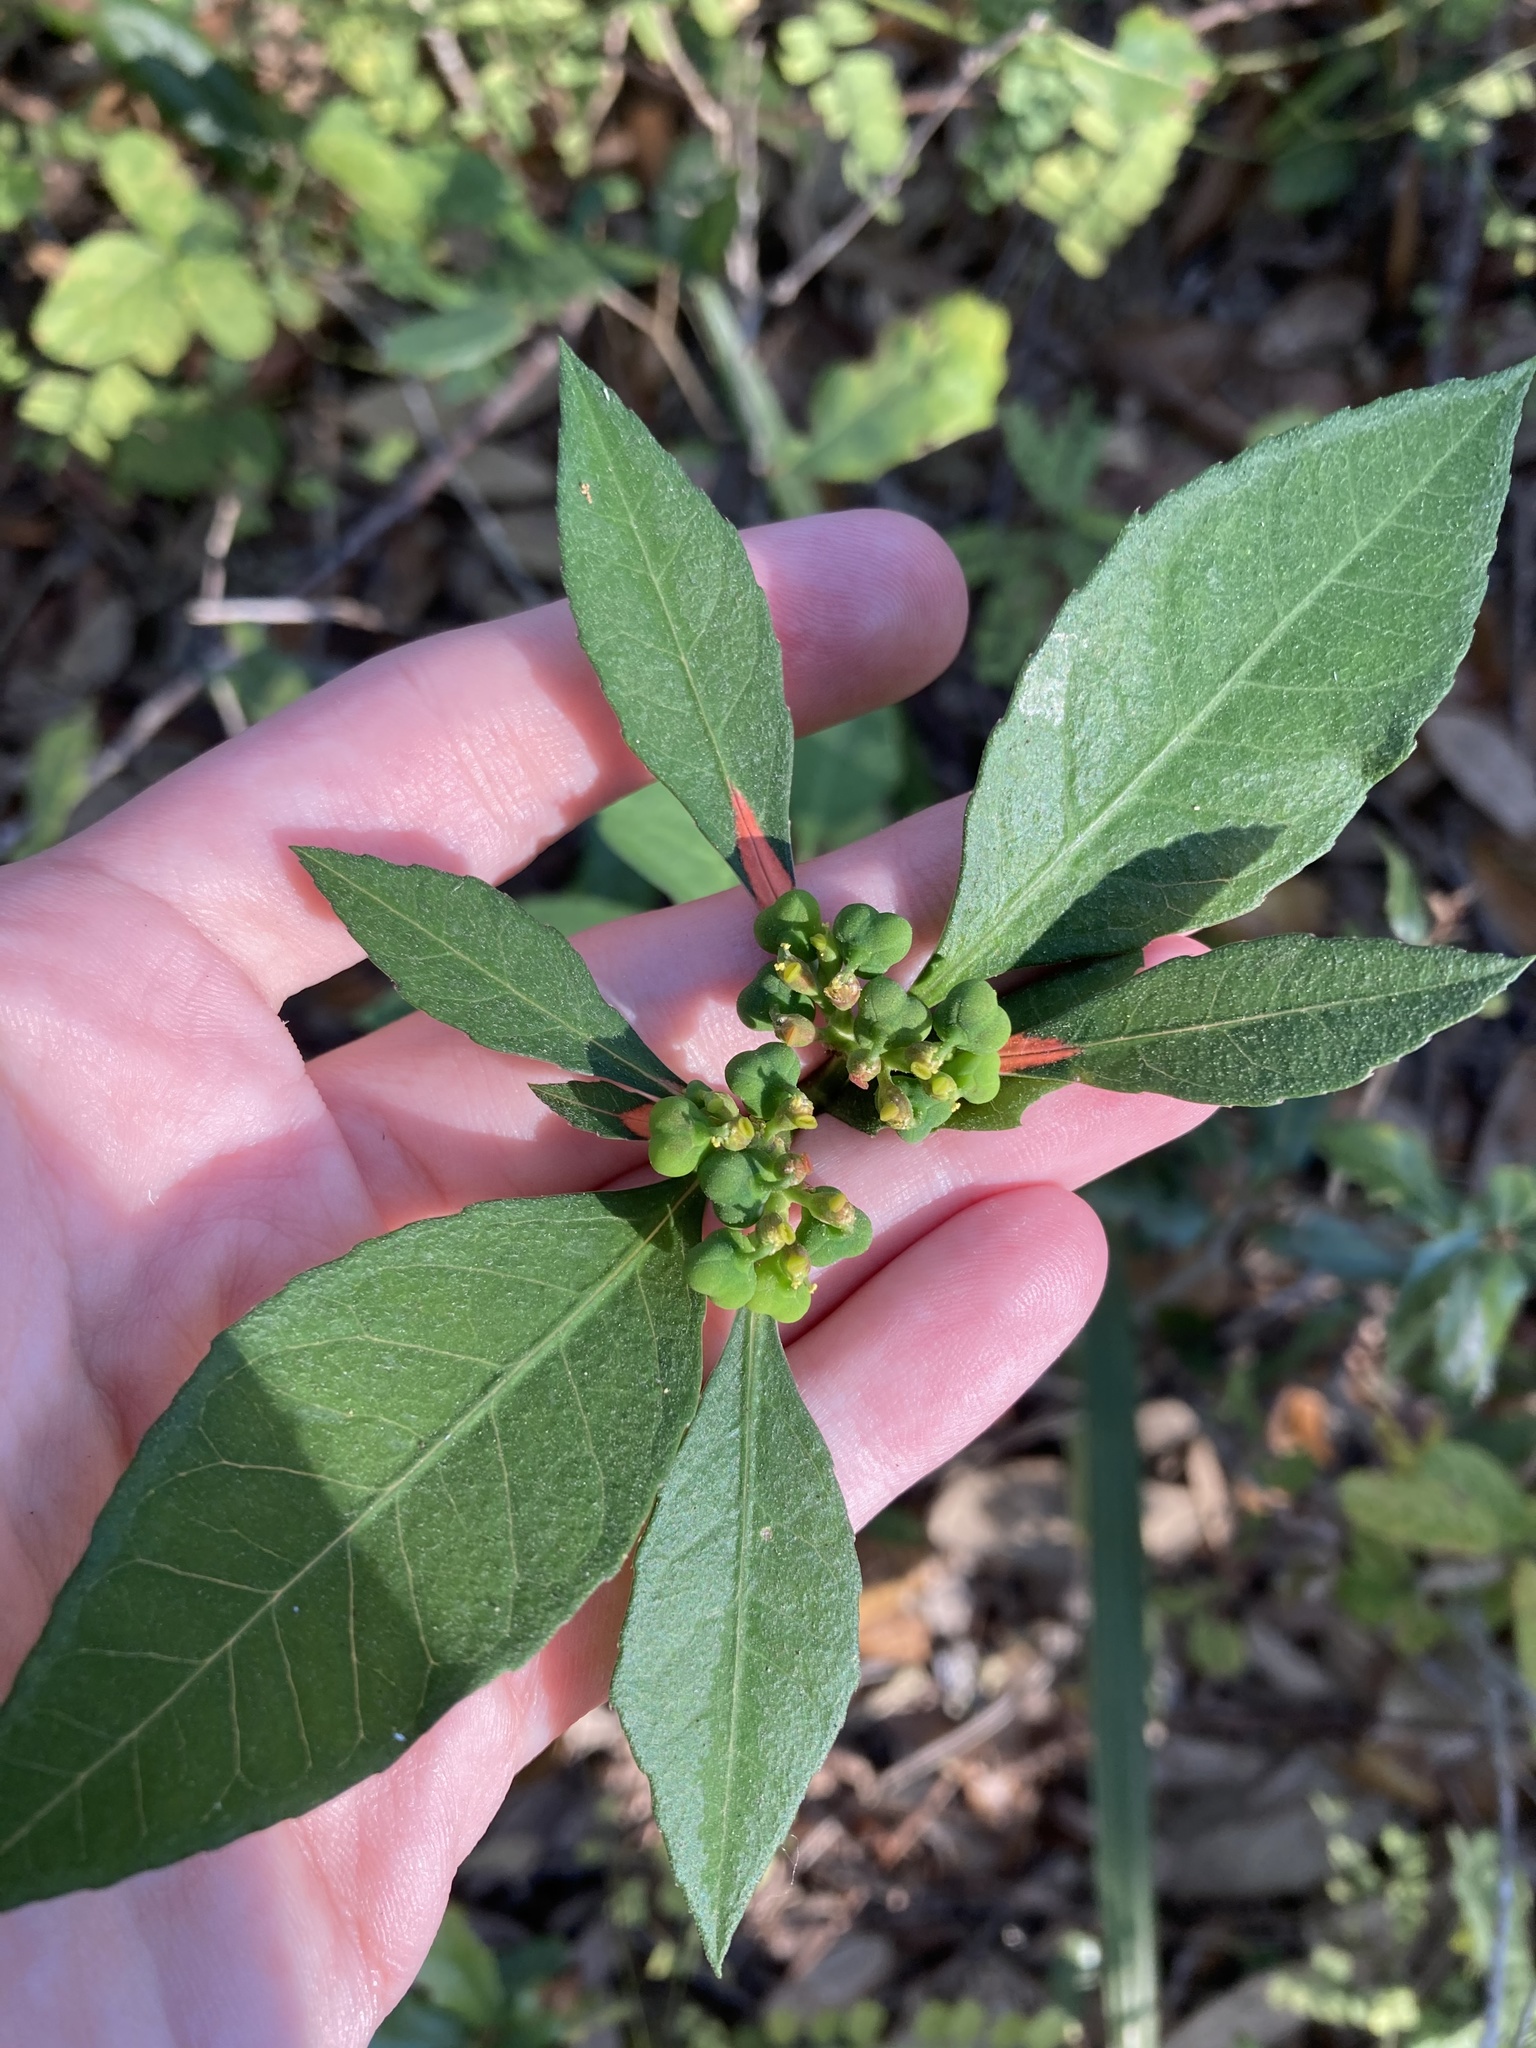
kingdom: Plantae
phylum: Tracheophyta
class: Magnoliopsida
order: Malpighiales
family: Euphorbiaceae
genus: Euphorbia
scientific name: Euphorbia heterophylla
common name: Mexican fireplant
